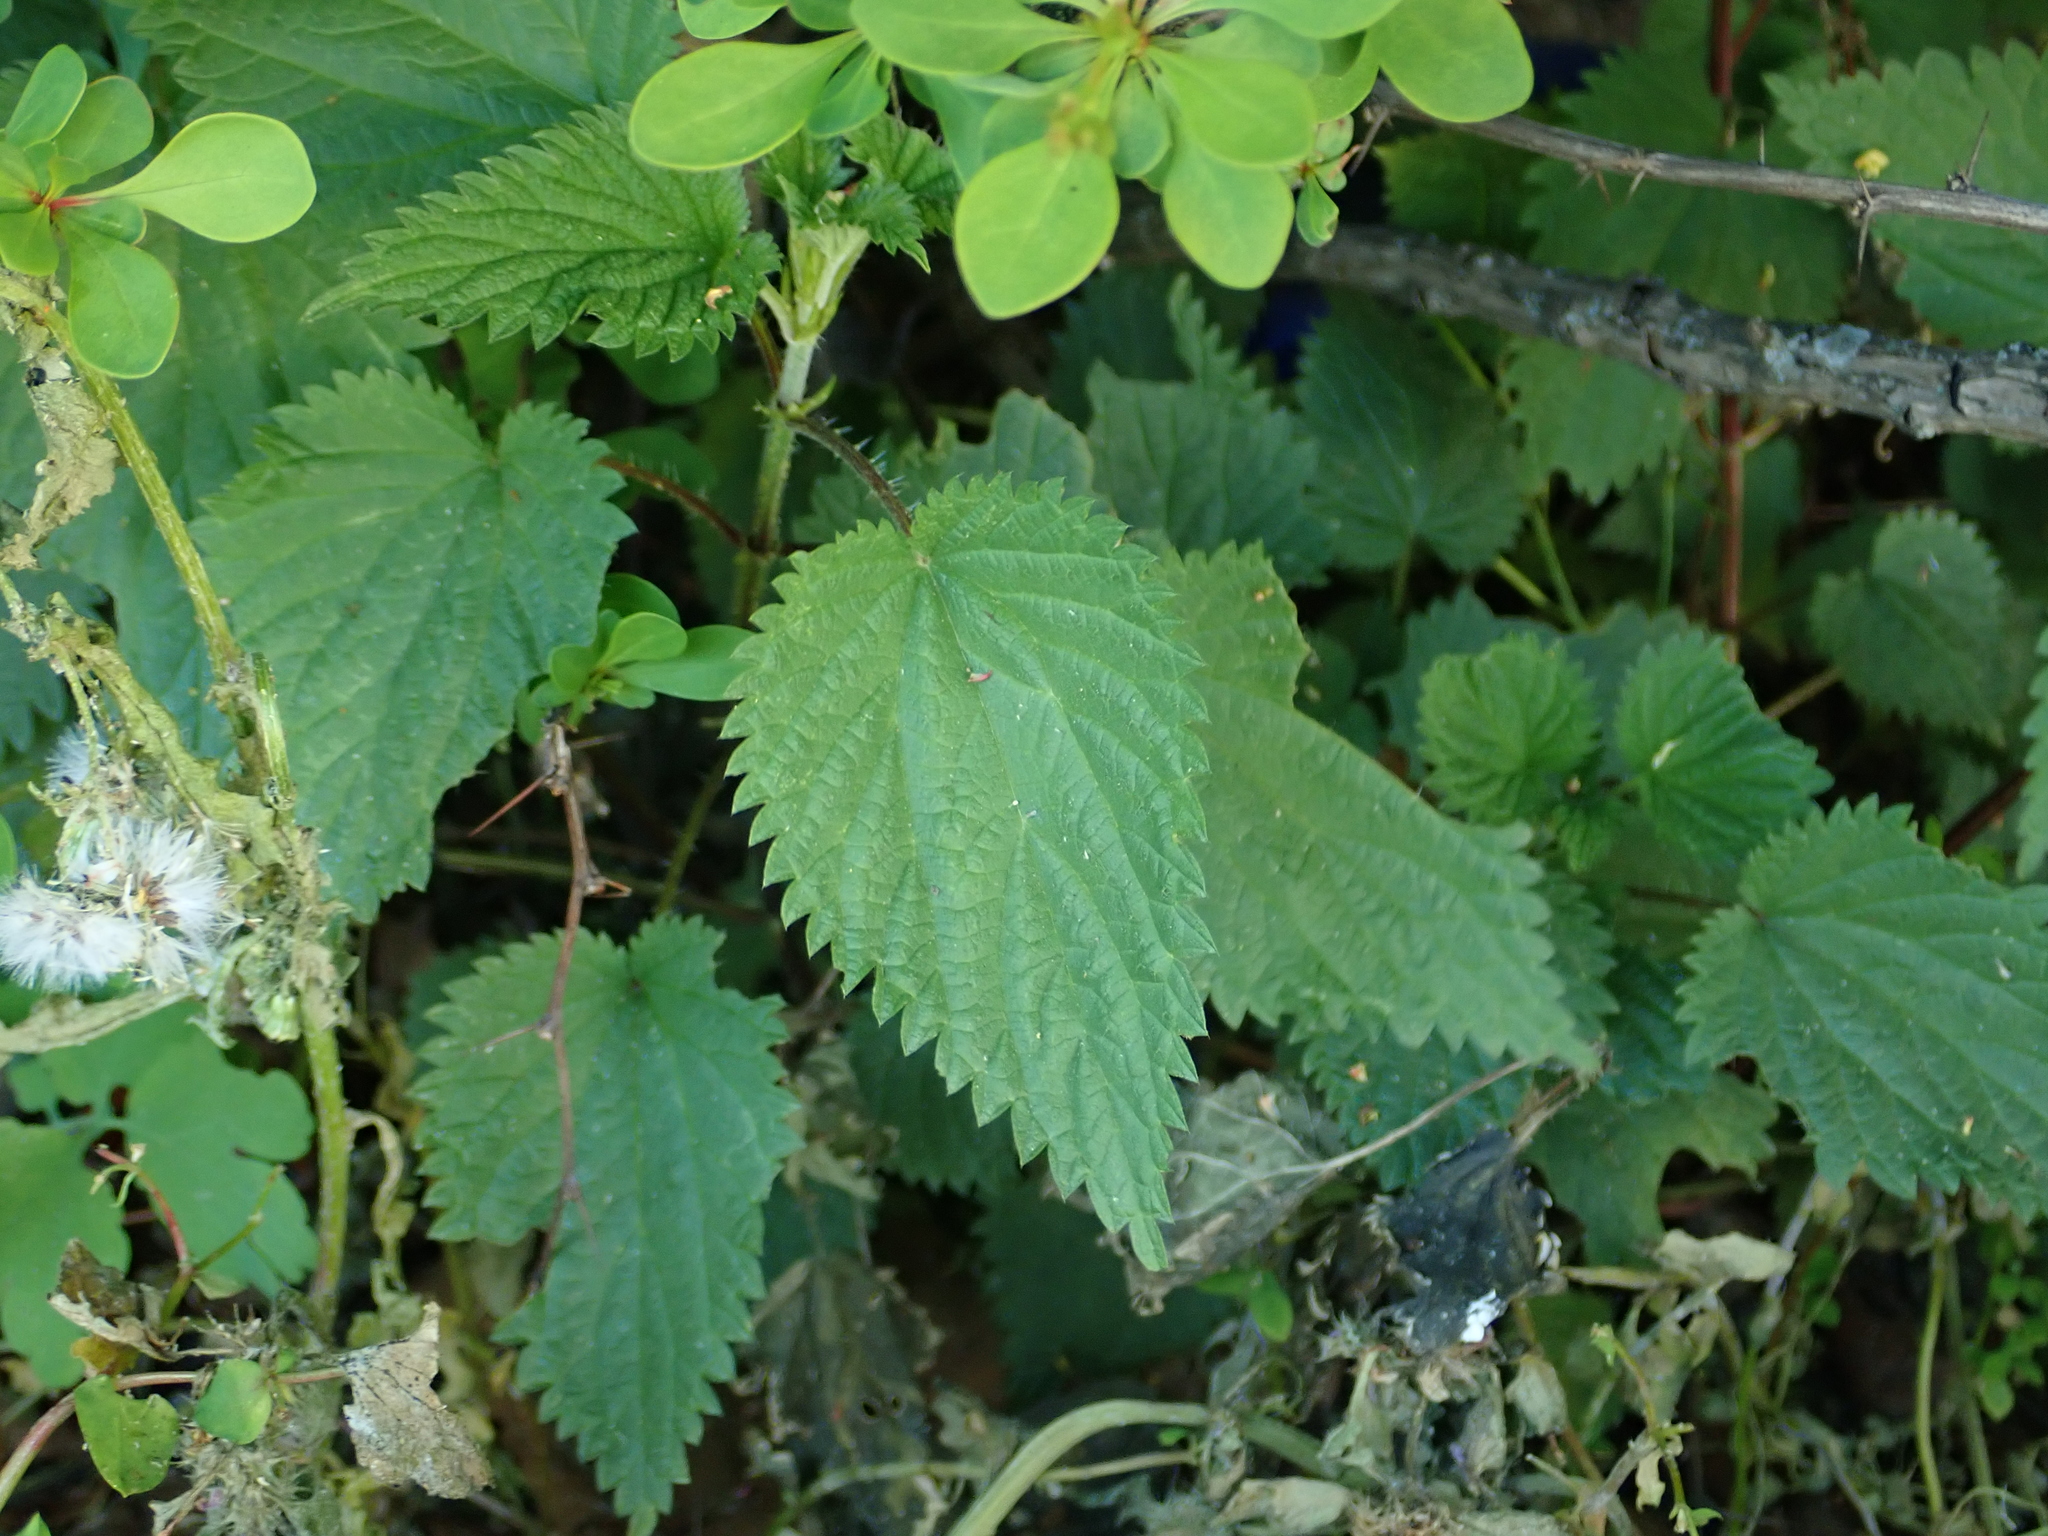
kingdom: Plantae
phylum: Tracheophyta
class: Magnoliopsida
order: Rosales
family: Urticaceae
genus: Urtica
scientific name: Urtica dioica
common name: Common nettle
